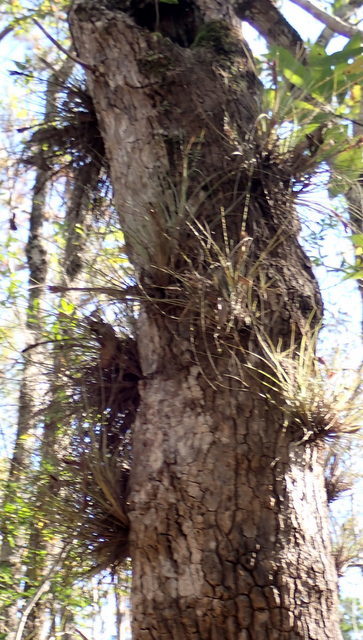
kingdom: Plantae
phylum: Tracheophyta
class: Liliopsida
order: Poales
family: Bromeliaceae
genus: Tillandsia
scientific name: Tillandsia bartramii
